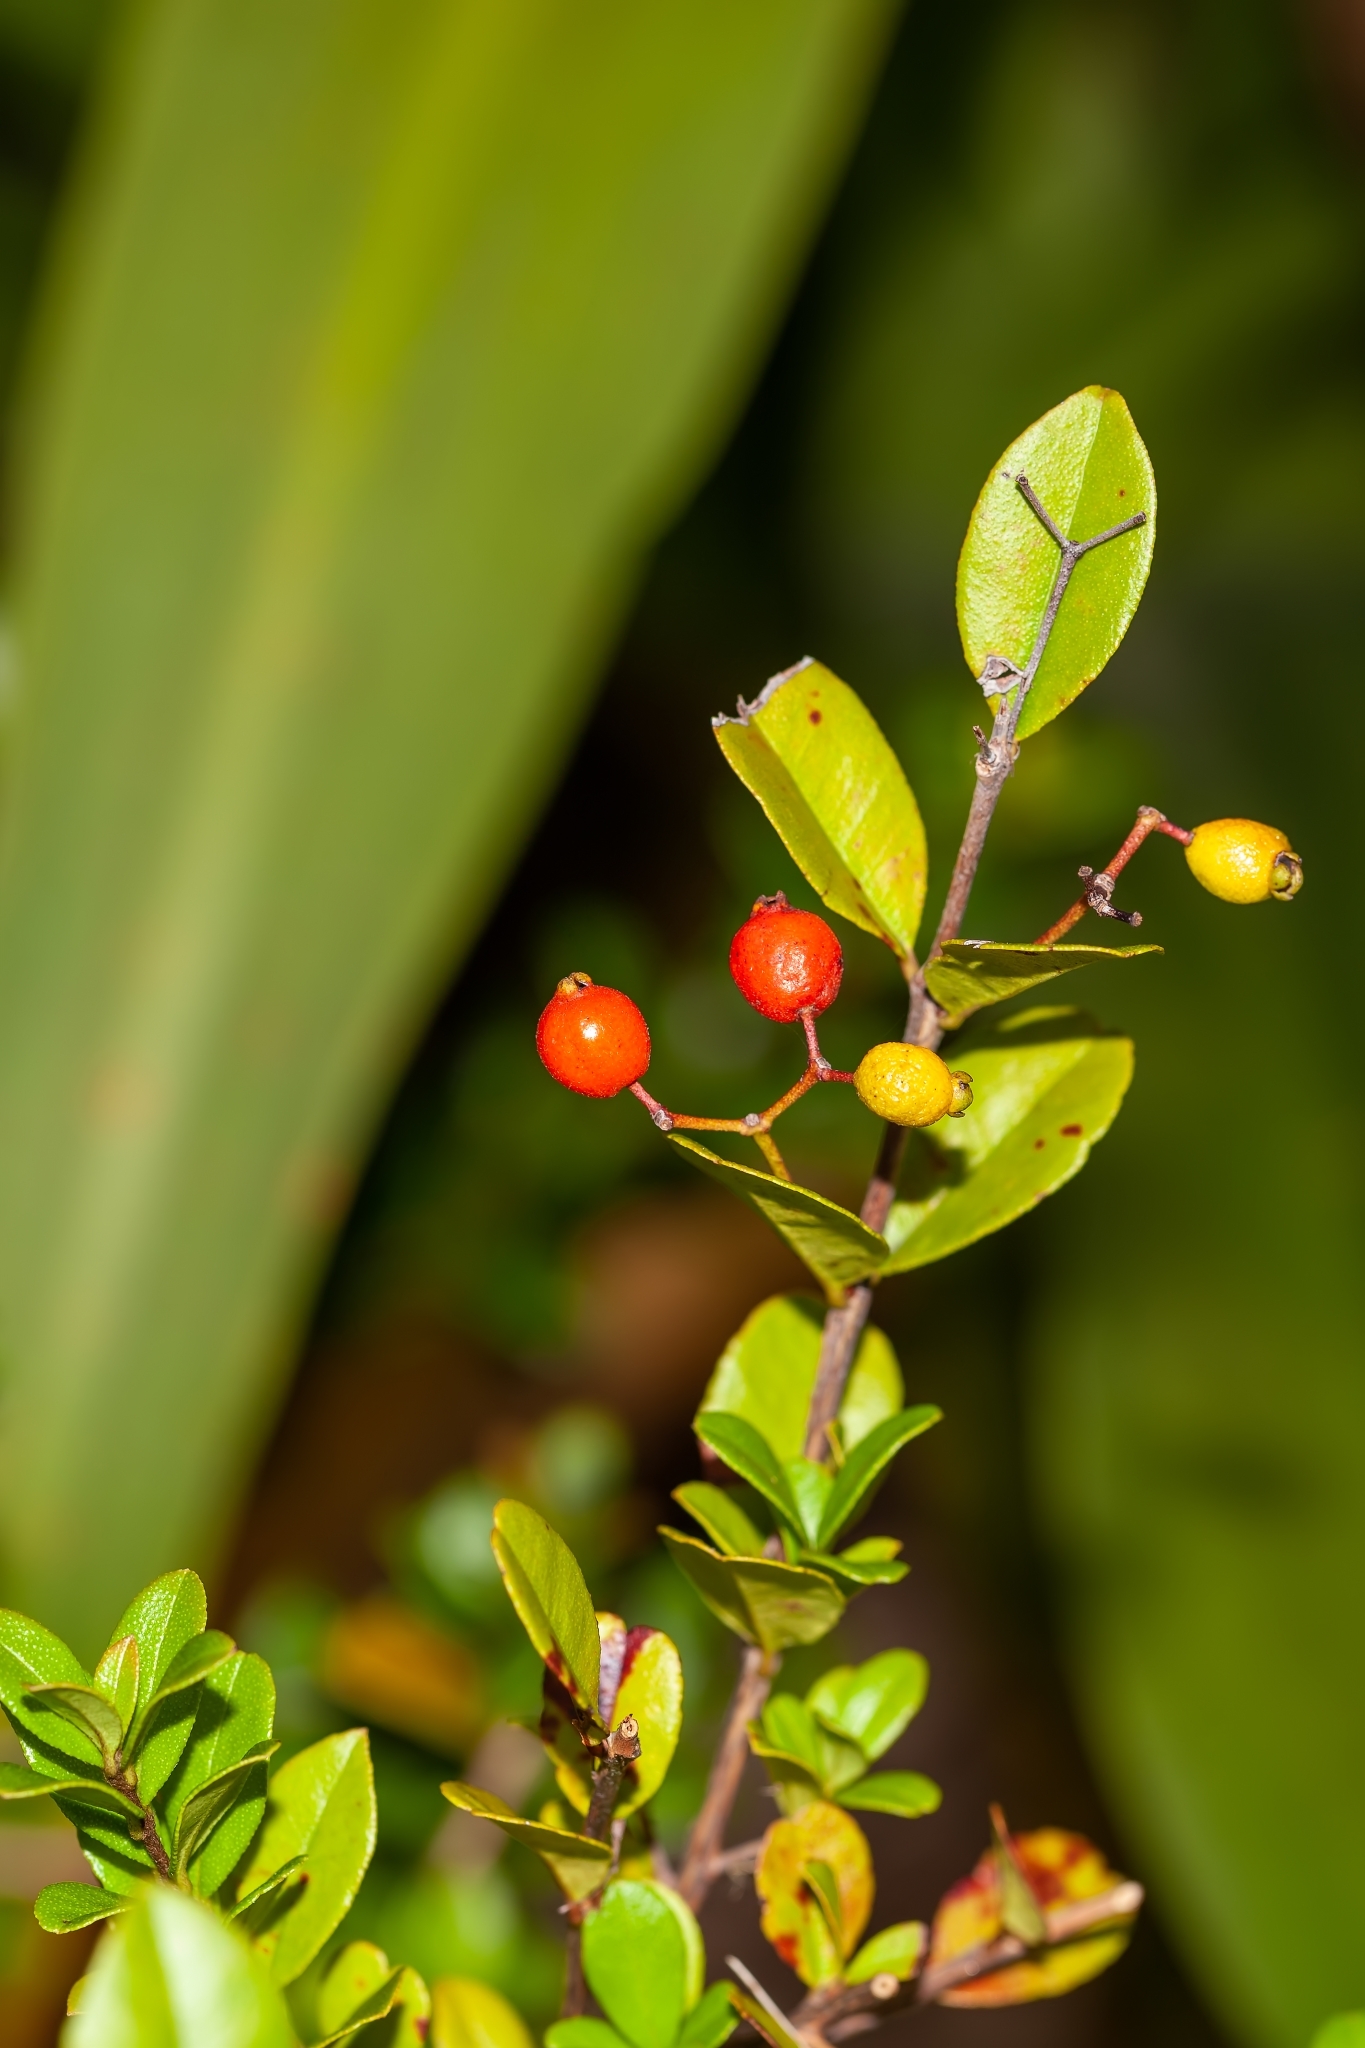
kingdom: Plantae
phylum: Tracheophyta
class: Magnoliopsida
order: Myrtales
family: Myrtaceae
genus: Myrcianthes
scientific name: Myrcianthes fragrans
